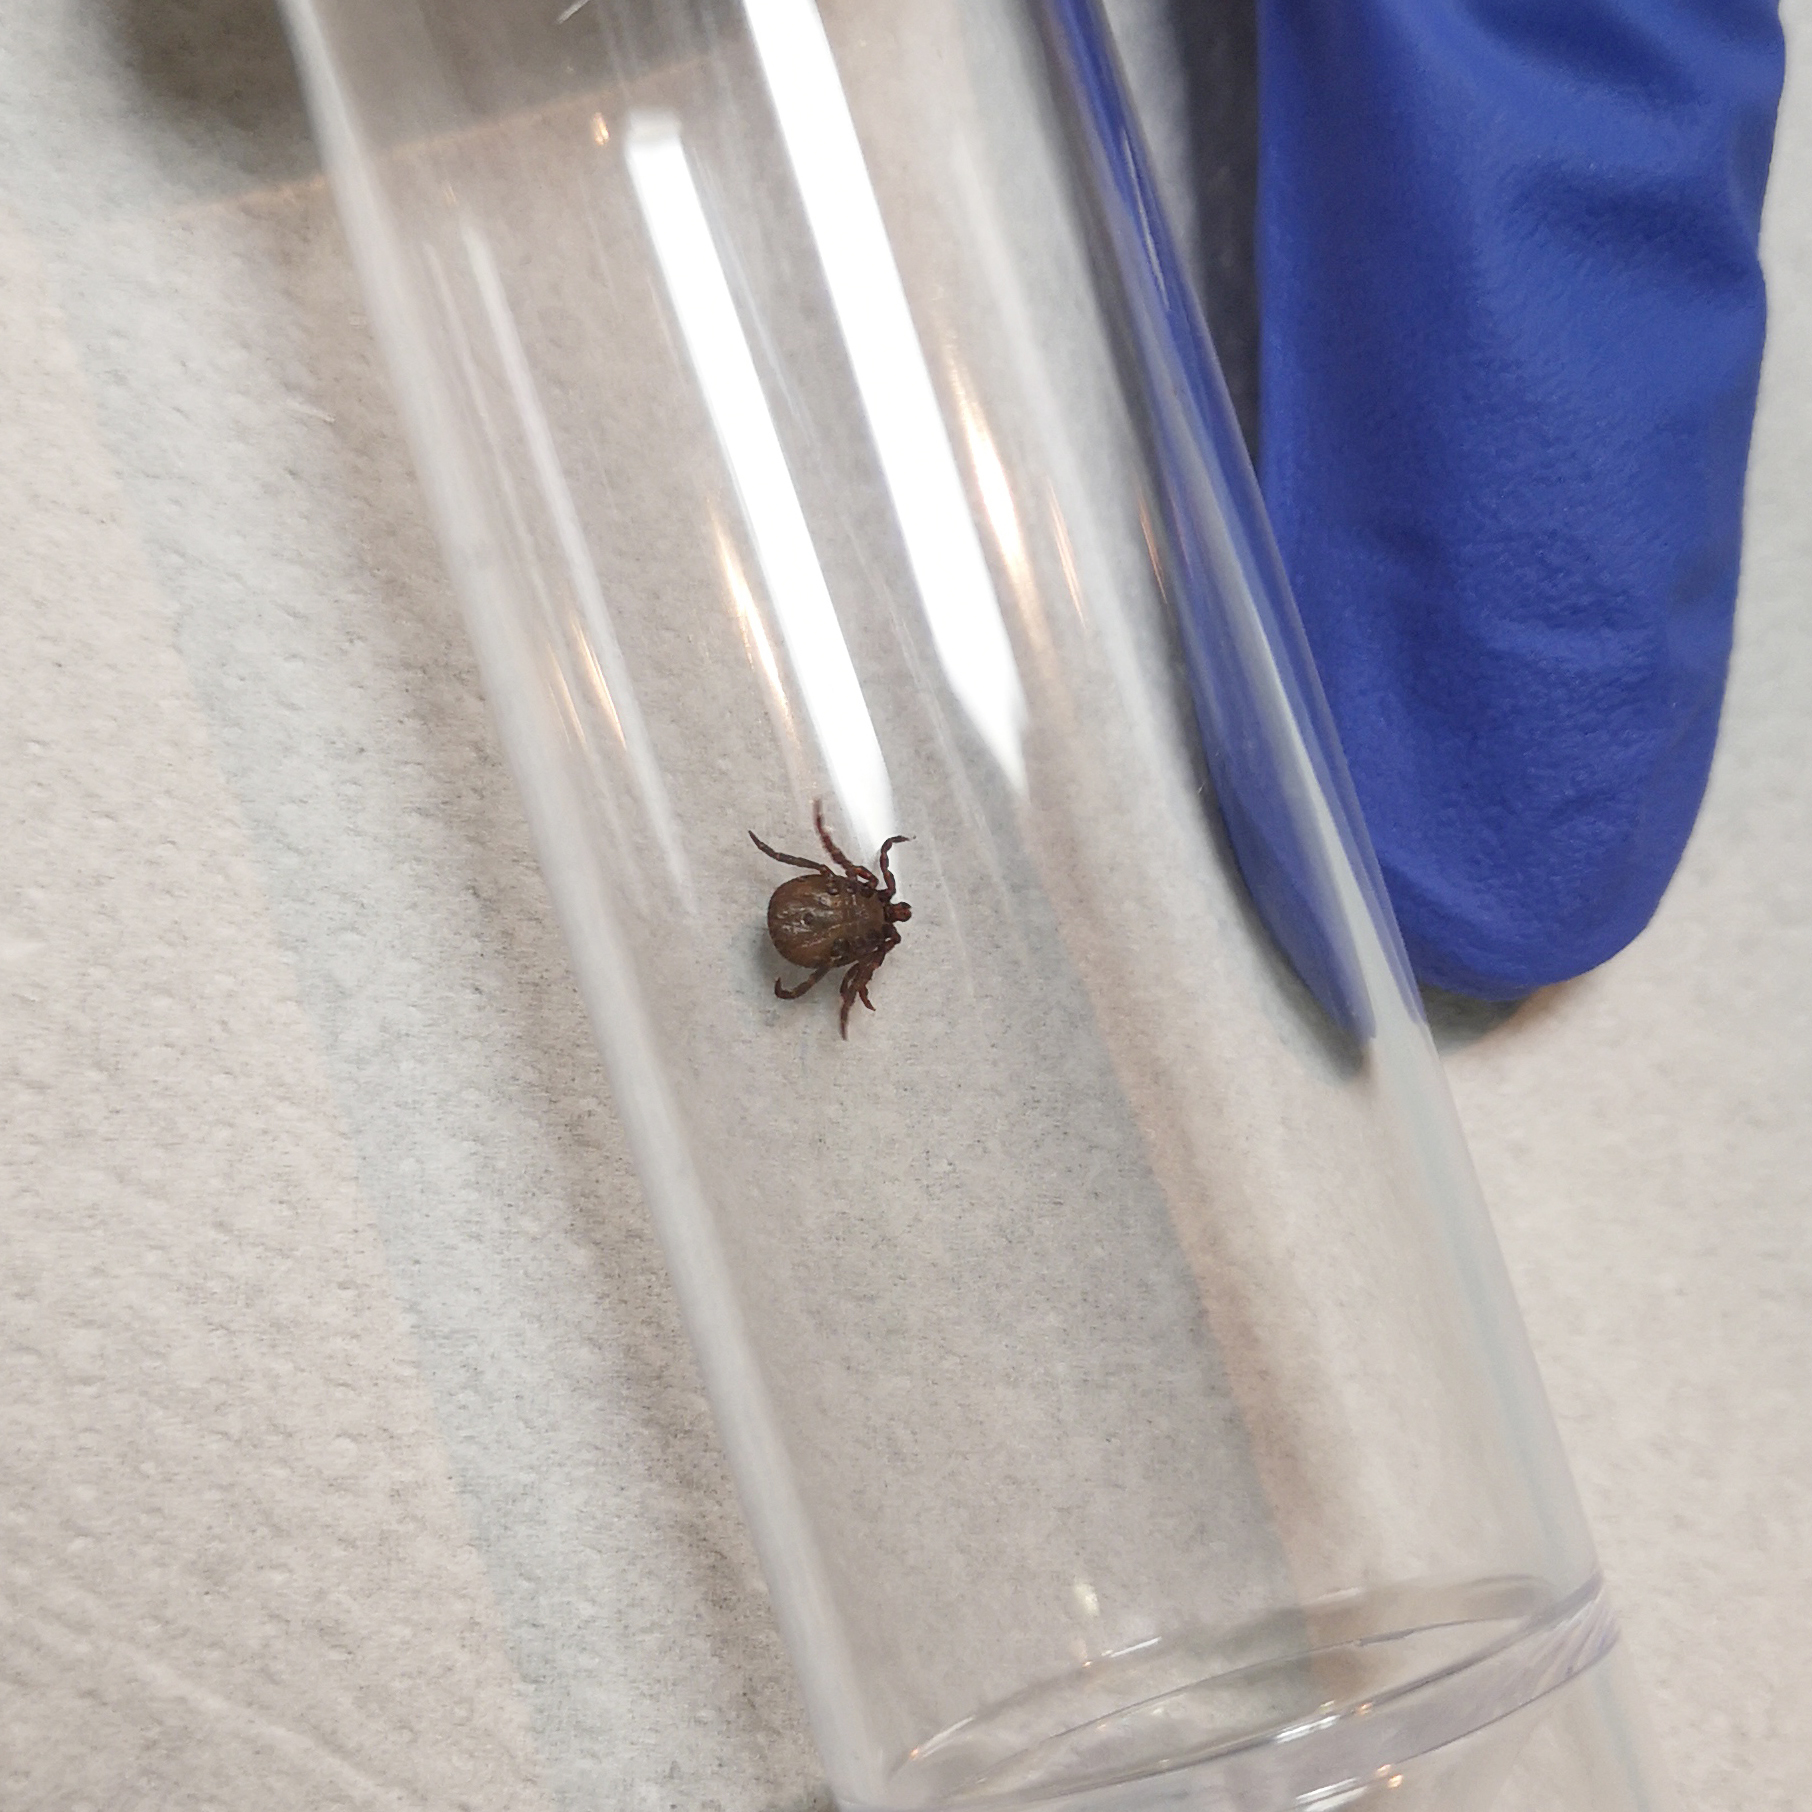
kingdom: Animalia
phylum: Arthropoda
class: Arachnida
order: Ixodida
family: Ixodidae
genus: Haemaphysalis
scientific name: Haemaphysalis inermis
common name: Winter tick
